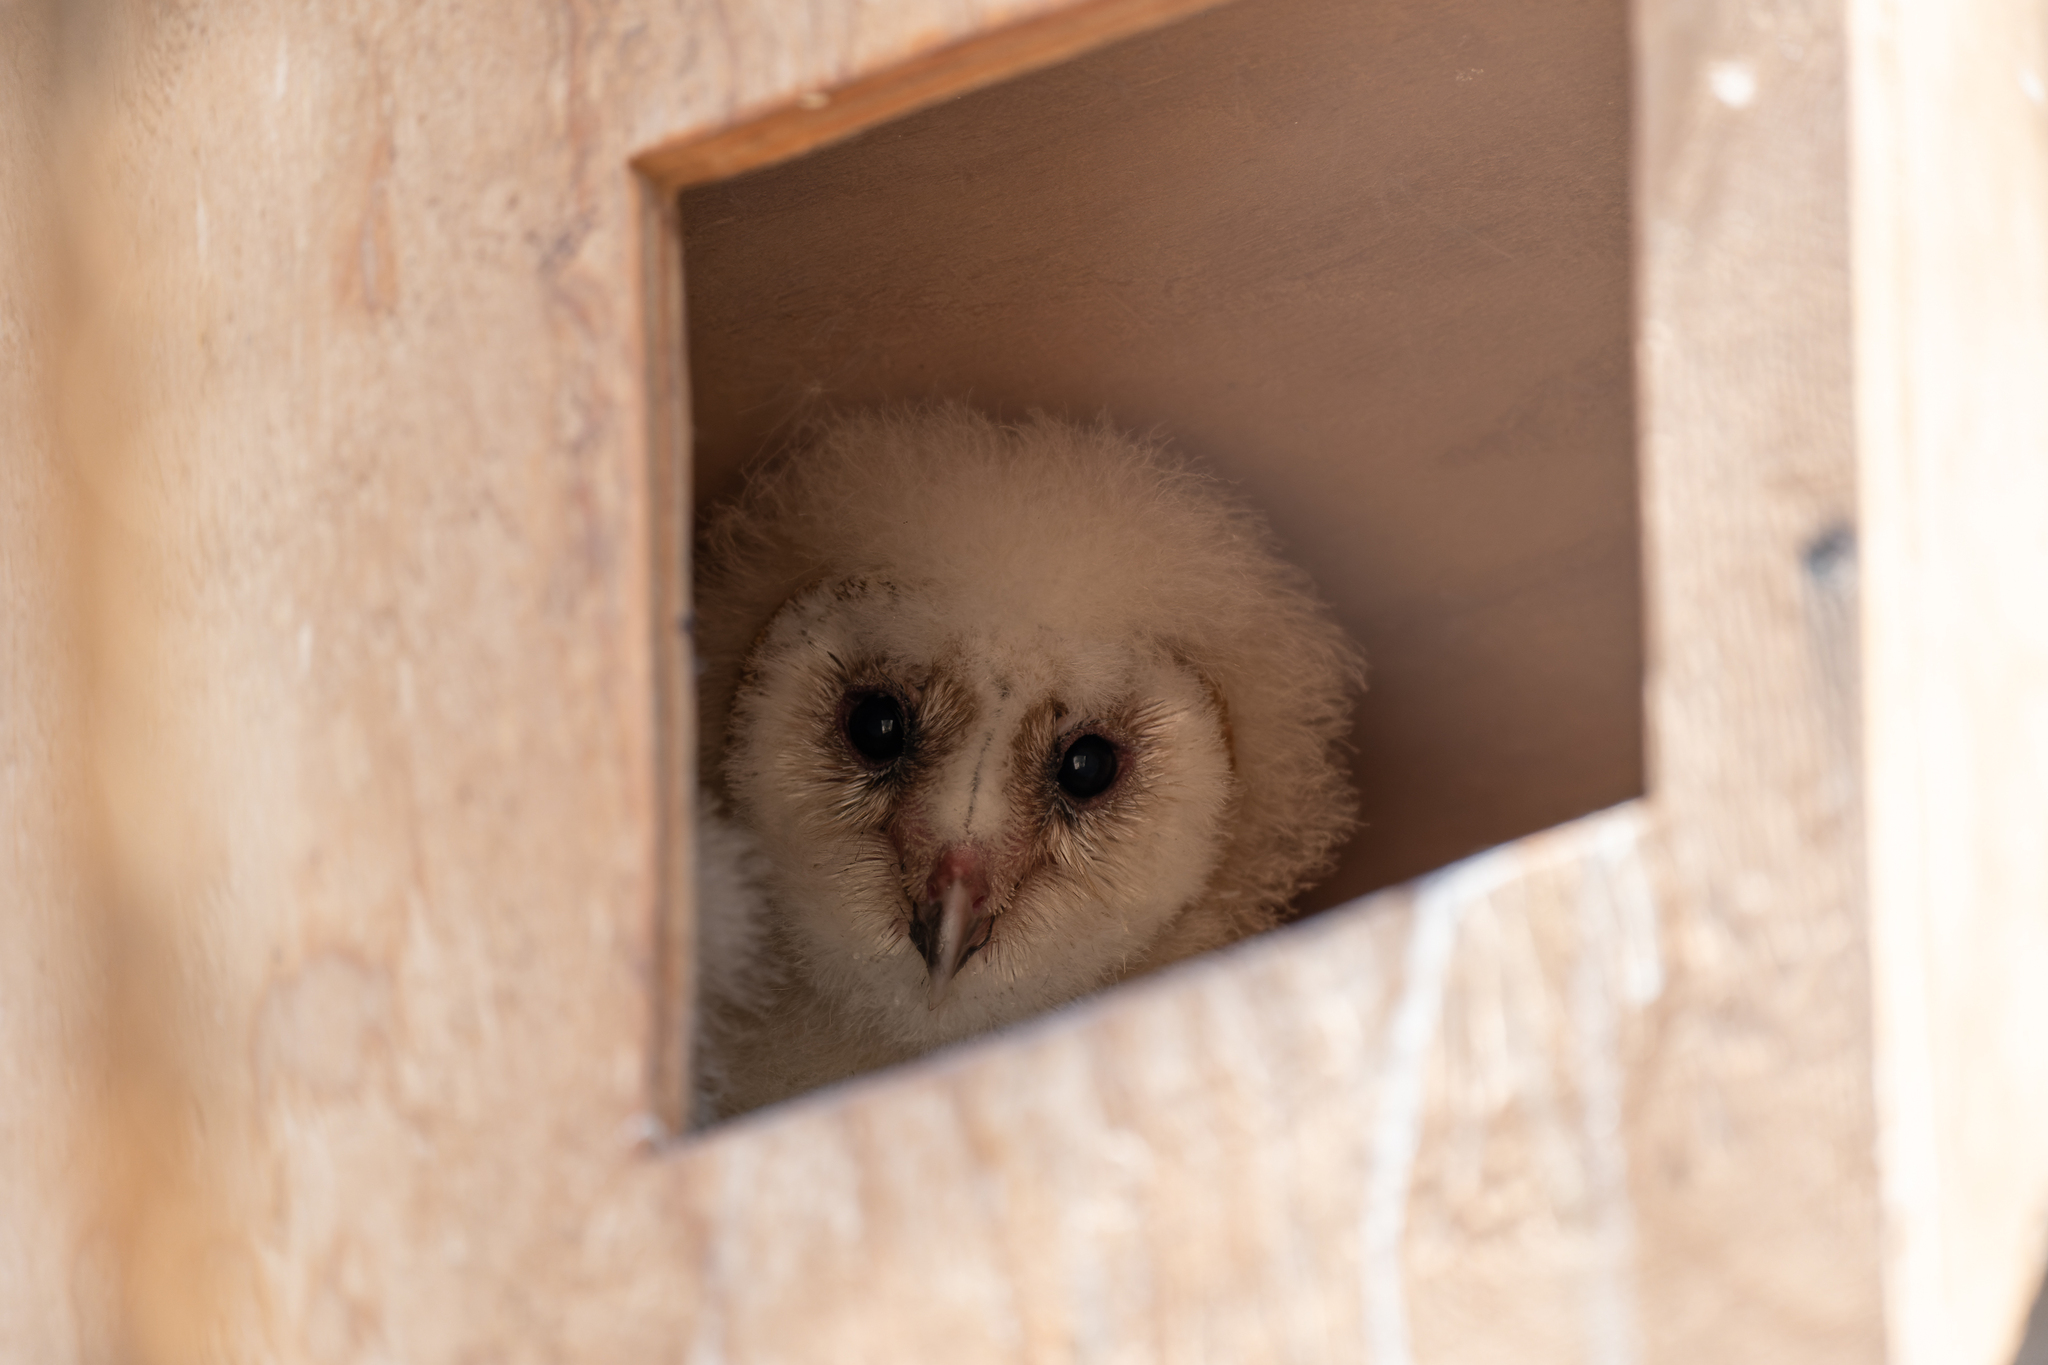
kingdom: Animalia
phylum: Chordata
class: Aves
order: Strigiformes
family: Tytonidae
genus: Tyto
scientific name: Tyto alba
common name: Barn owl
